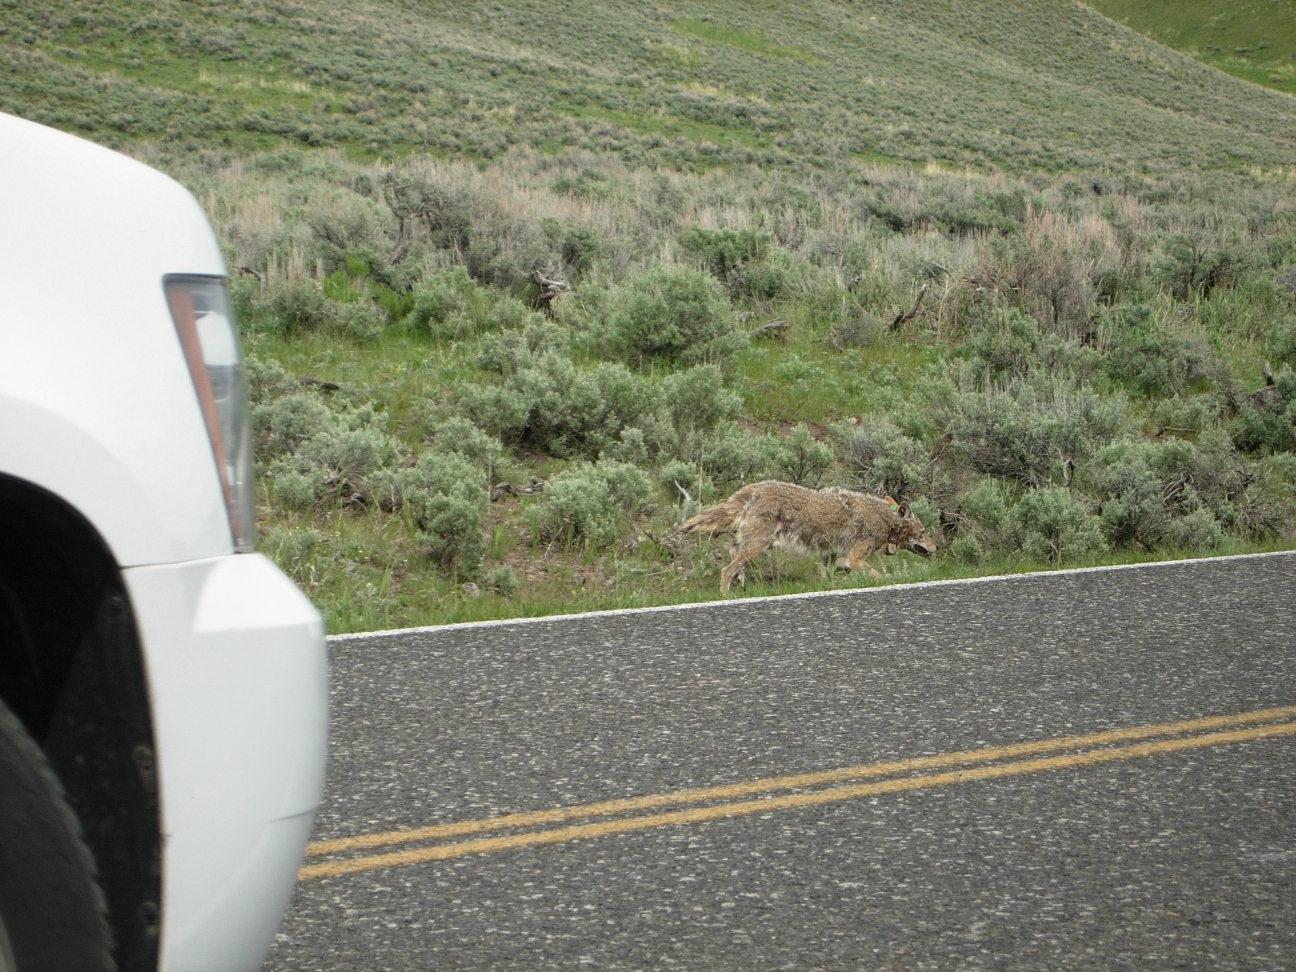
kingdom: Animalia
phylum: Chordata
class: Mammalia
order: Carnivora
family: Canidae
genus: Canis
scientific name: Canis latrans
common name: Coyote
